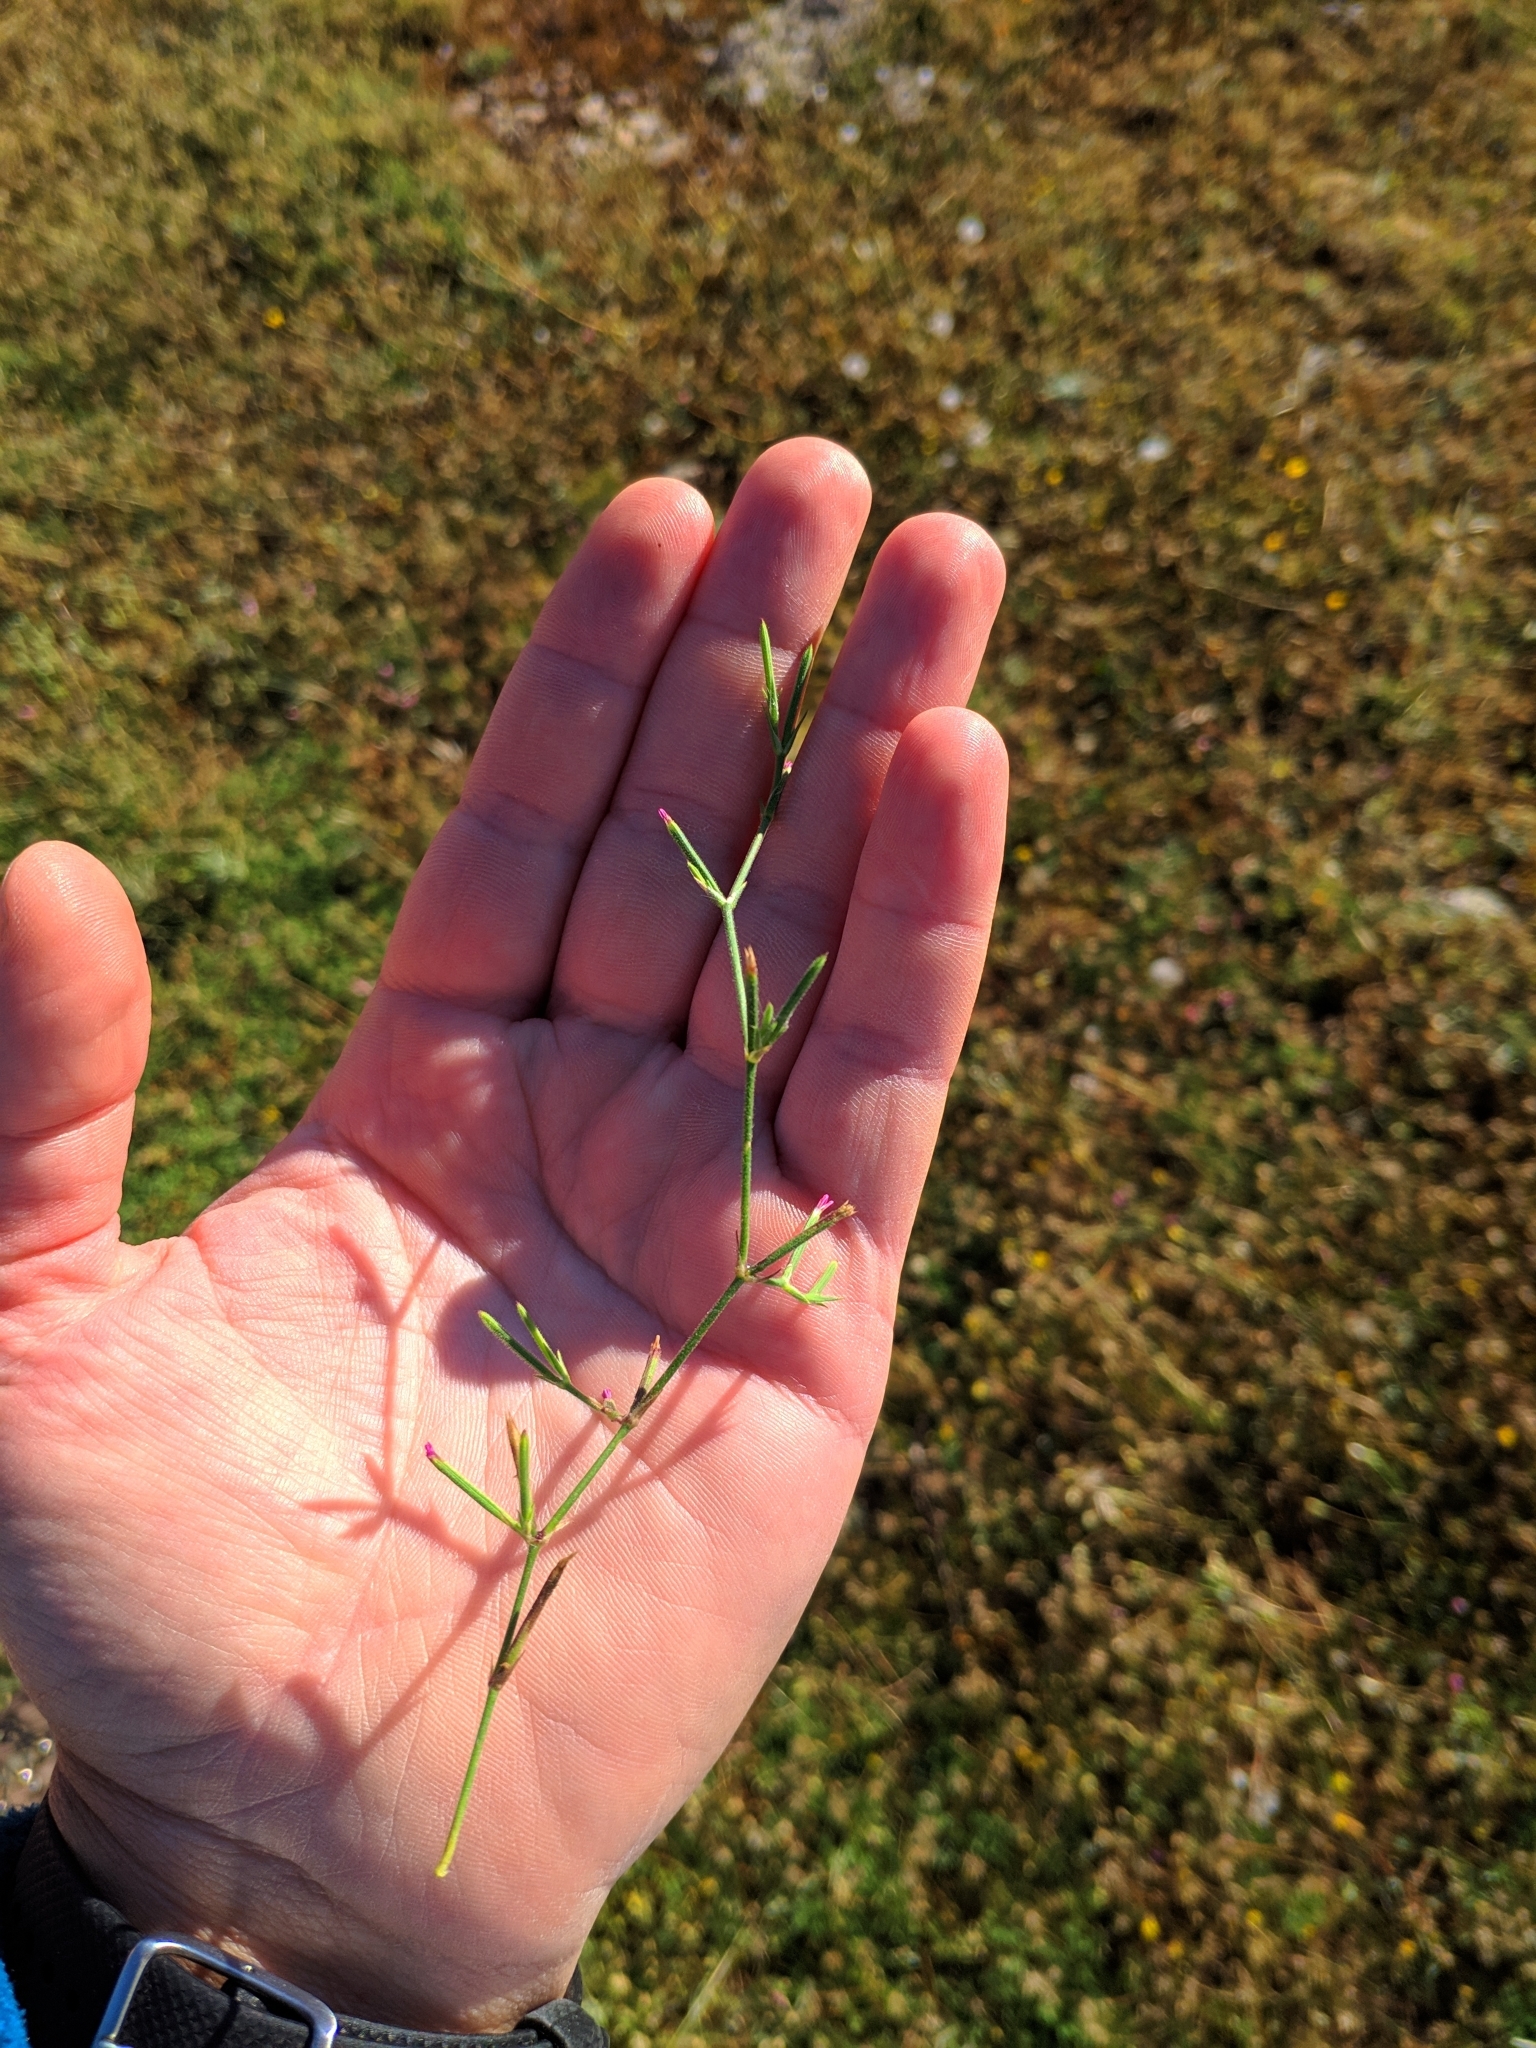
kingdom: Plantae
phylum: Tracheophyta
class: Magnoliopsida
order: Caryophyllales
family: Caryophyllaceae
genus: Dianthus
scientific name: Dianthus nudiflorus
